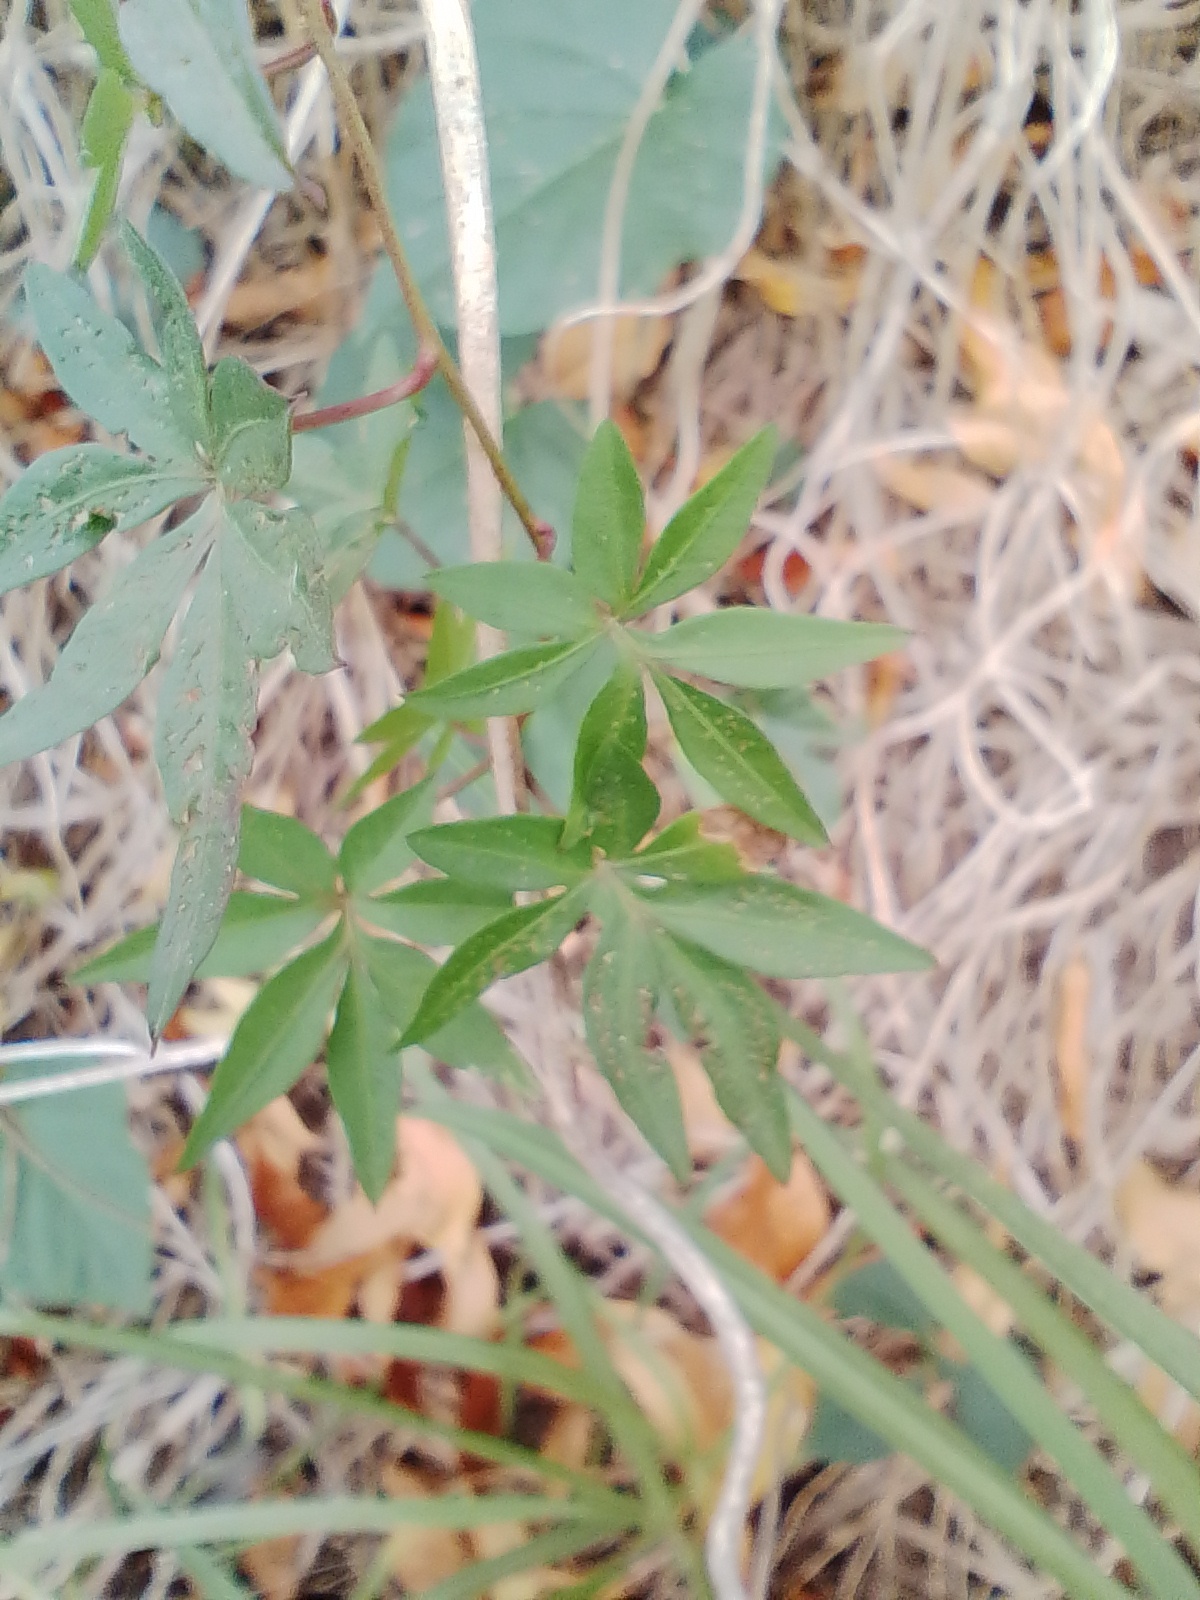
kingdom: Plantae
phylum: Tracheophyta
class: Magnoliopsida
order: Solanales
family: Convolvulaceae
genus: Ipomoea
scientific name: Ipomoea cairica
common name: Mile a minute vine
